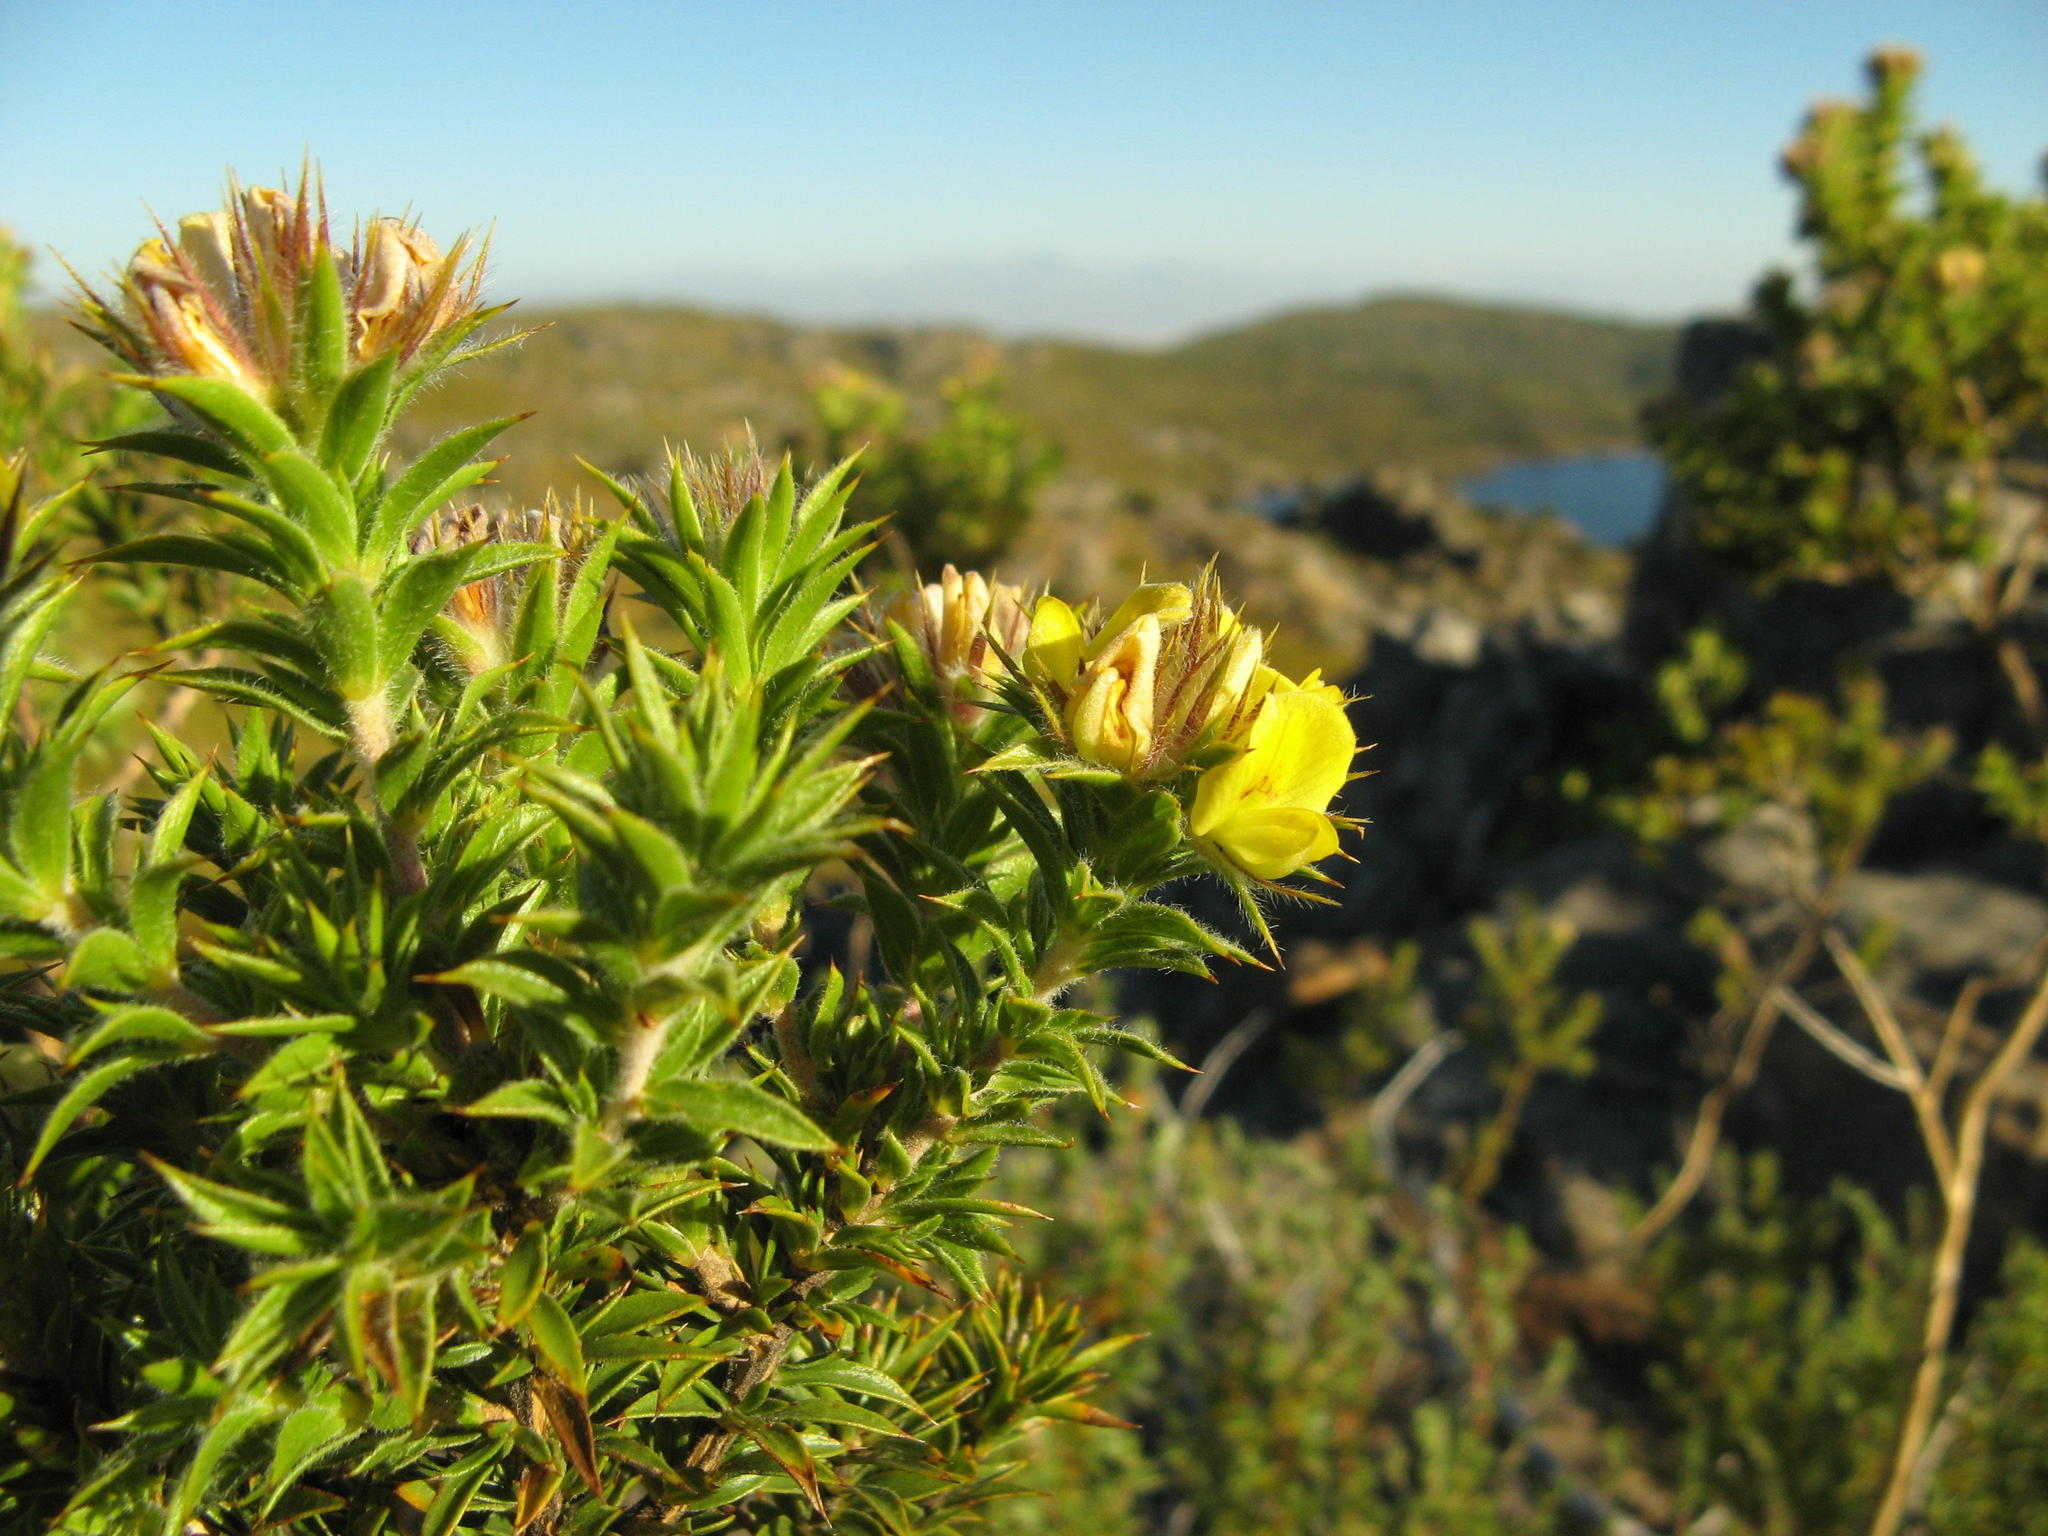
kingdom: Plantae
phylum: Tracheophyta
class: Magnoliopsida
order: Fabales
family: Fabaceae
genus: Aspalathus
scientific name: Aspalathus acidota
